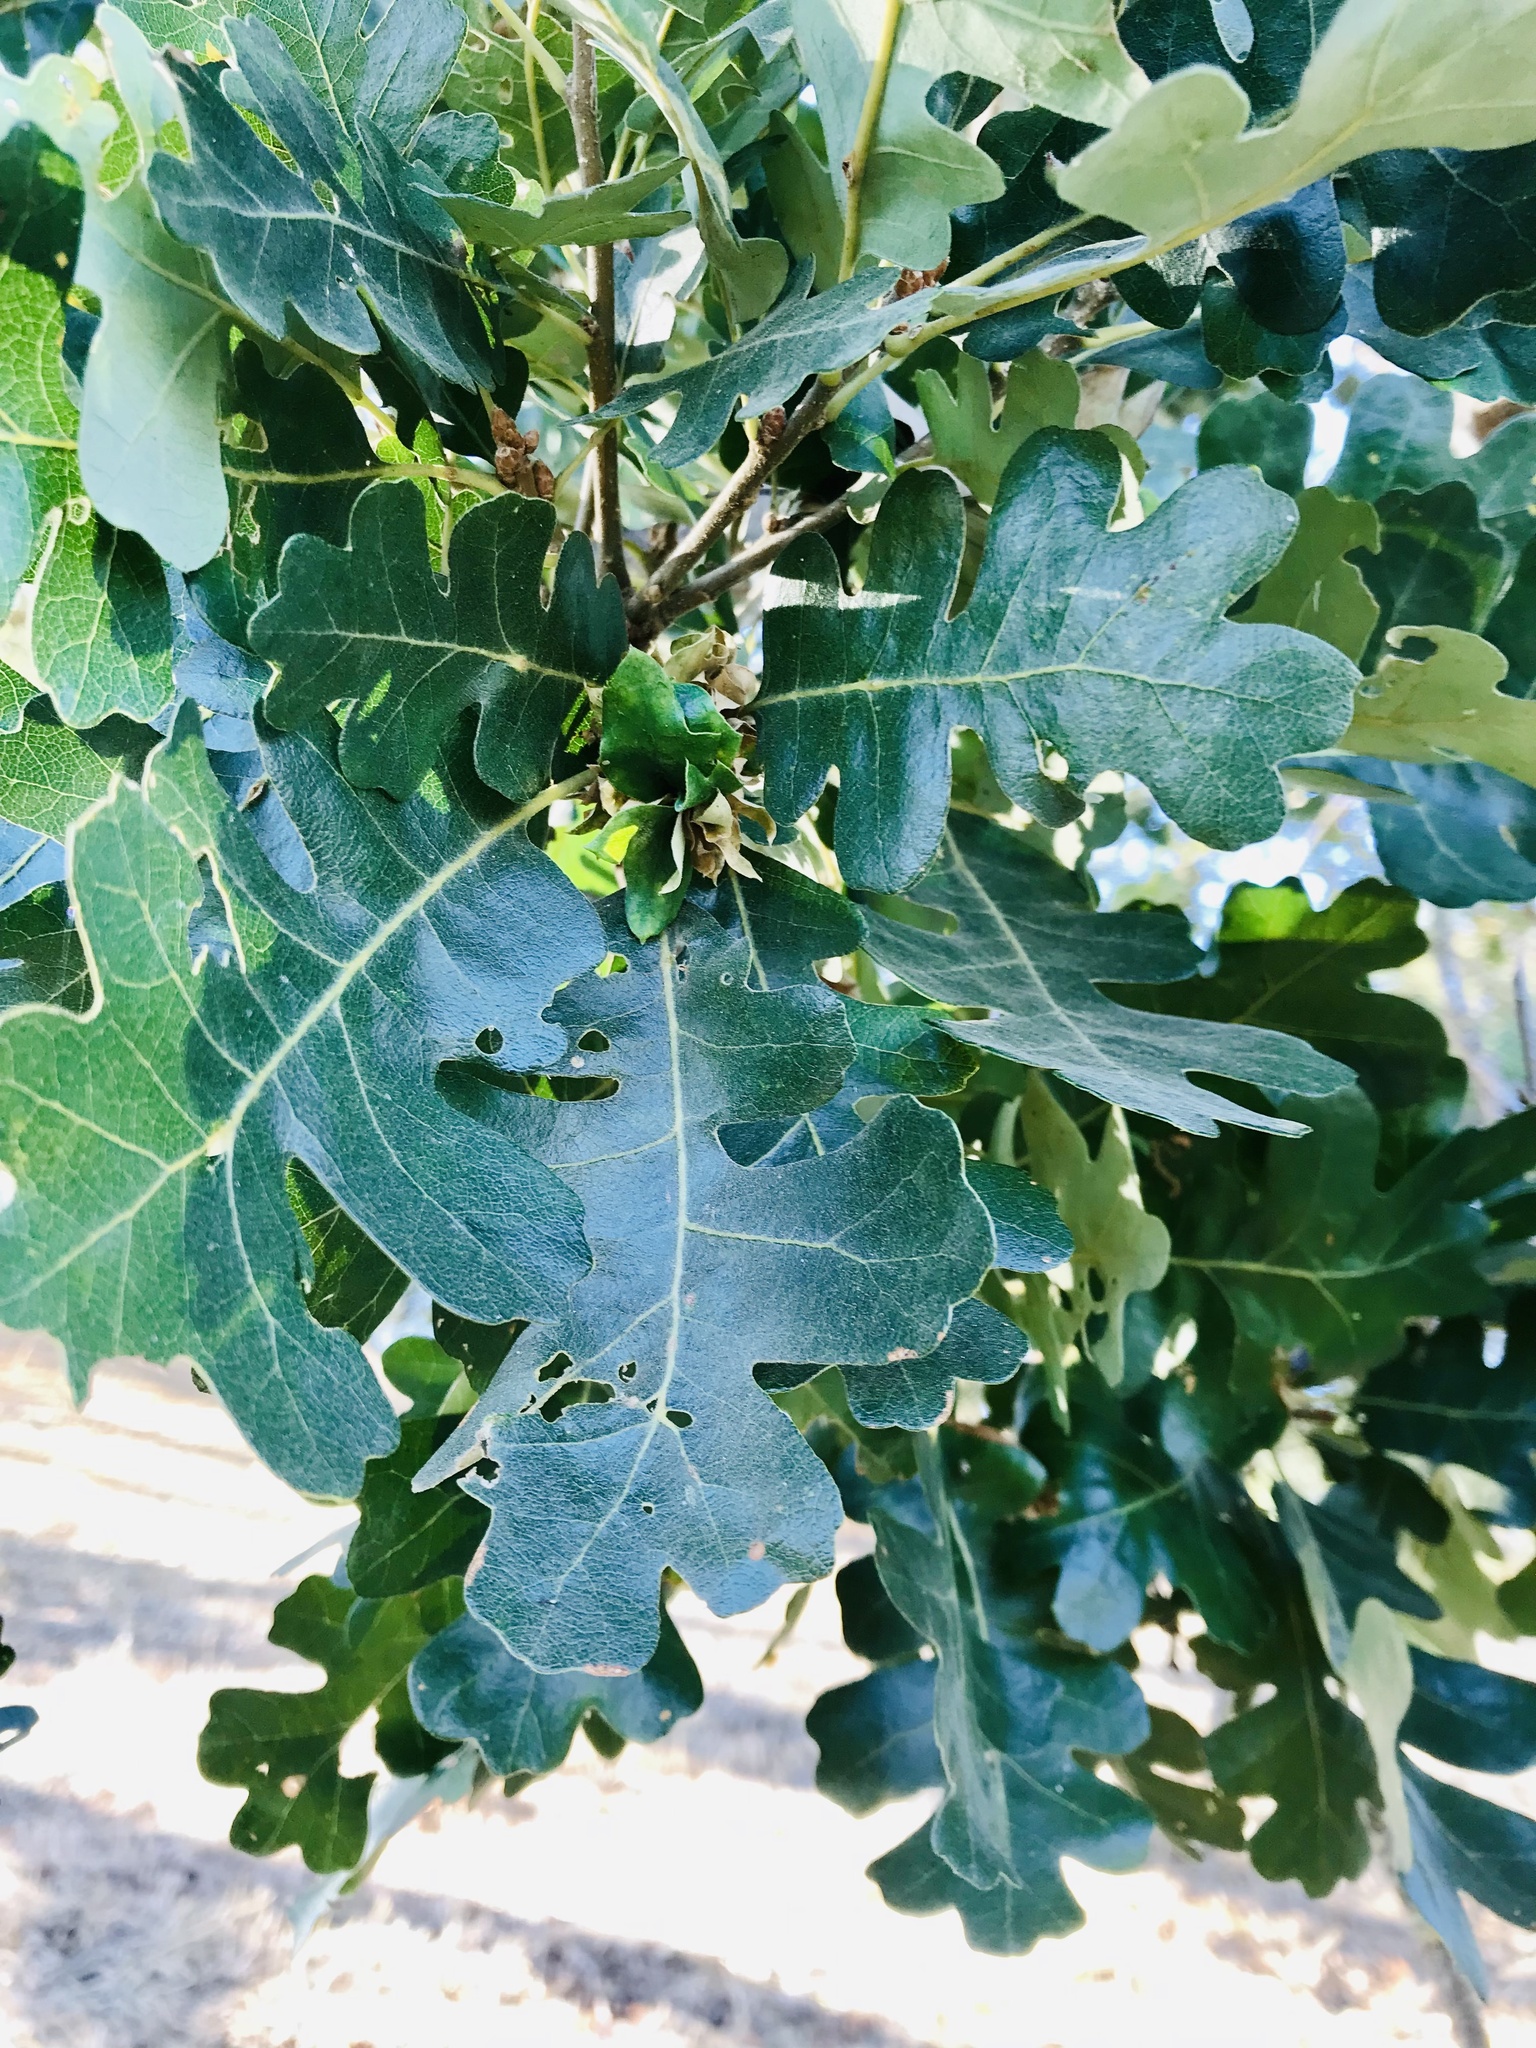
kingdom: Animalia
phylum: Arthropoda
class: Insecta
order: Hymenoptera
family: Cynipidae
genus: Andricus
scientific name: Andricus
